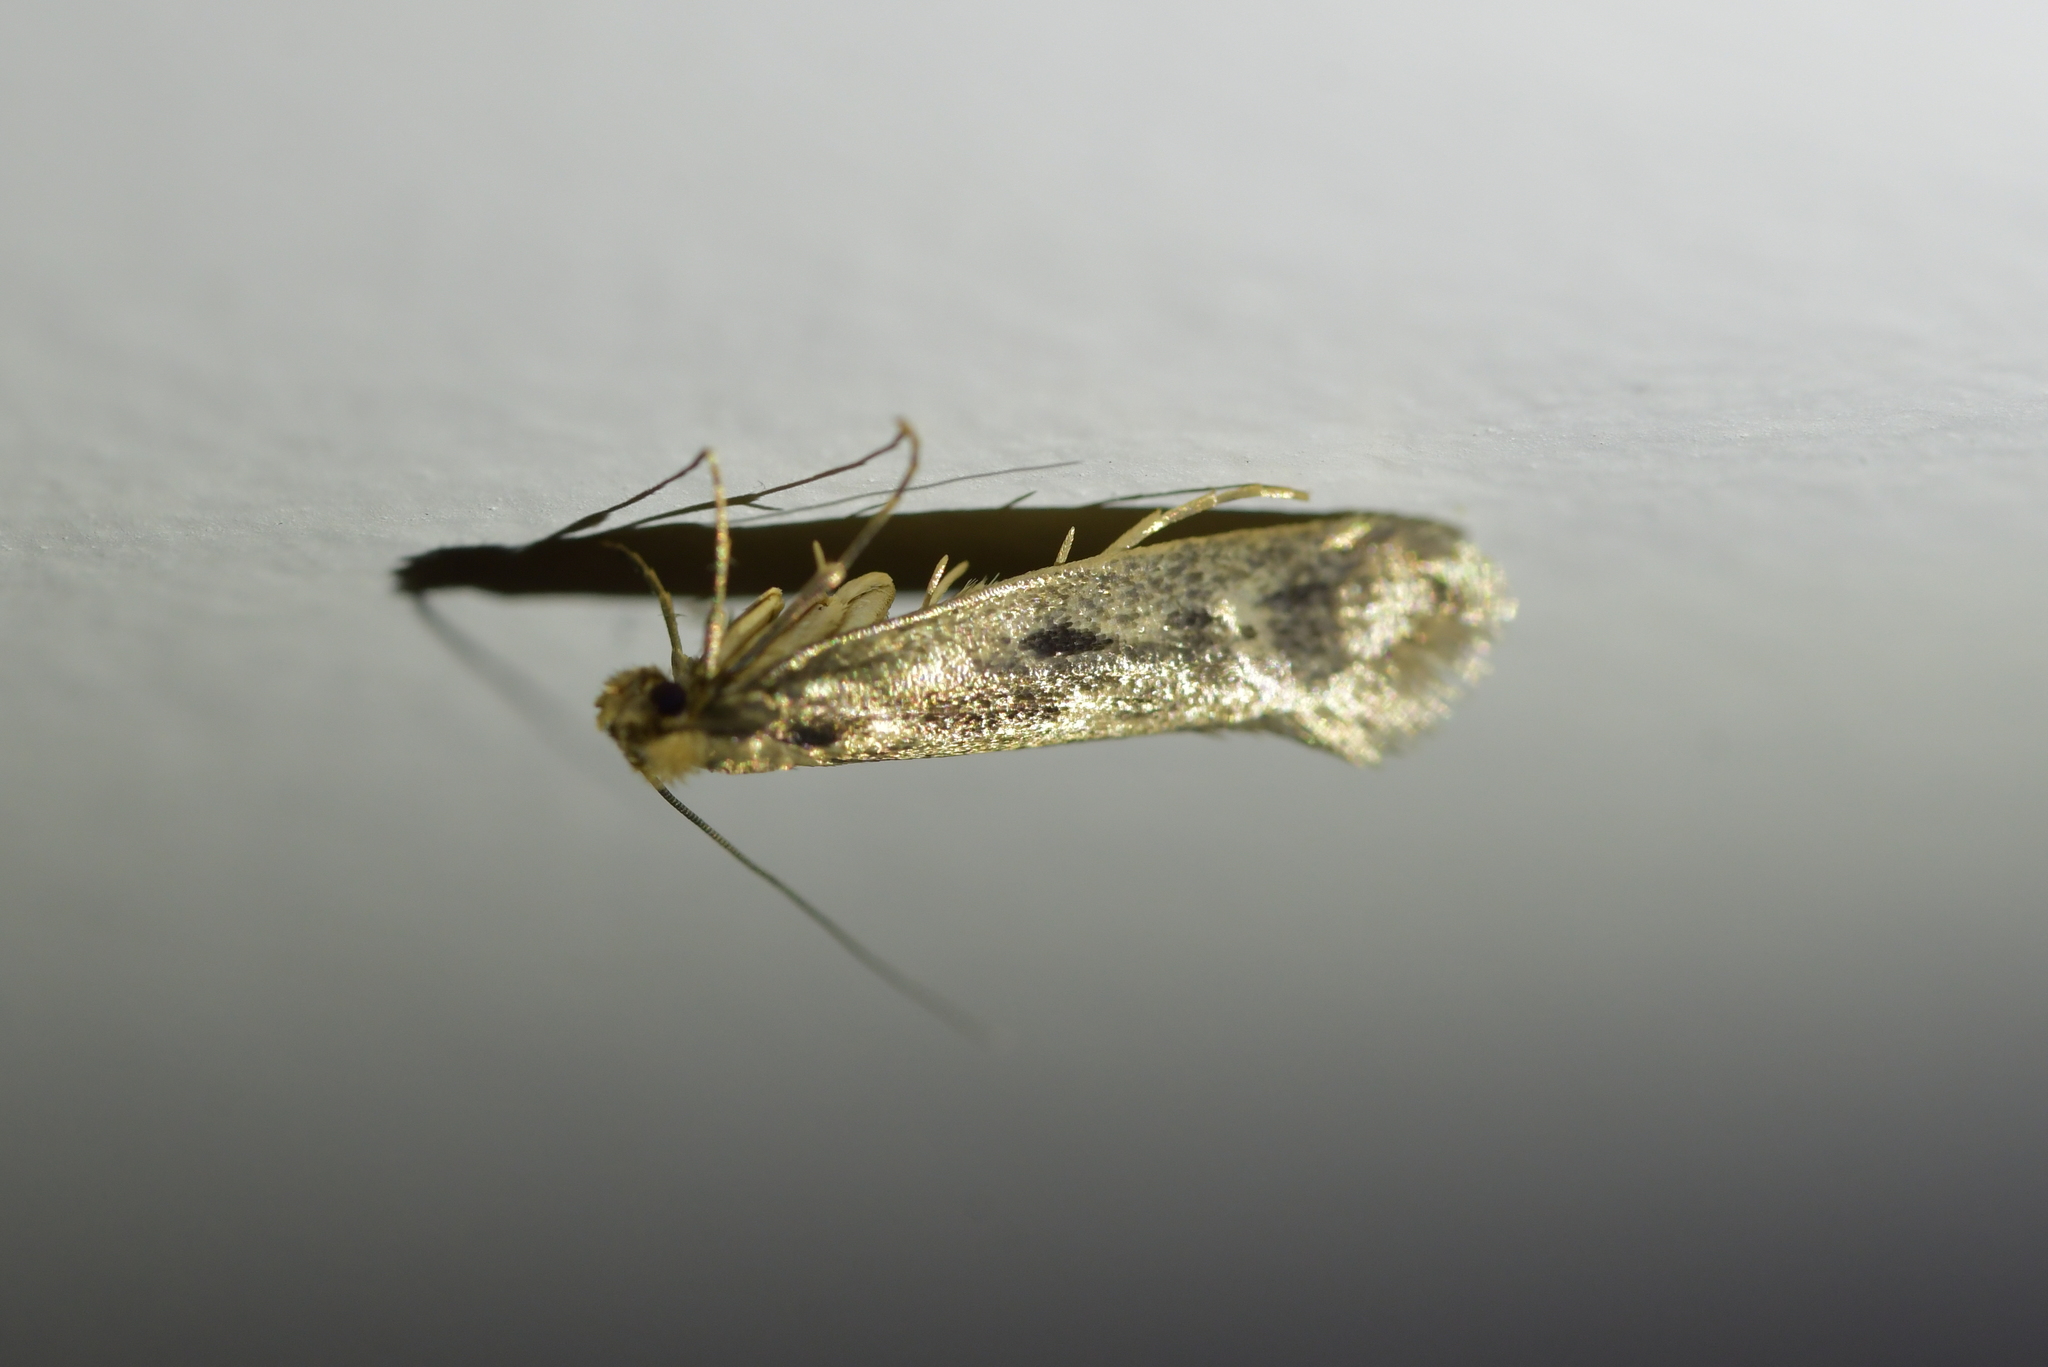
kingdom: Animalia
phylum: Arthropoda
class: Insecta
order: Lepidoptera
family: Tineidae
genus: Tinea
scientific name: Tinea pallescentella
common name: Large pale clothes moth
